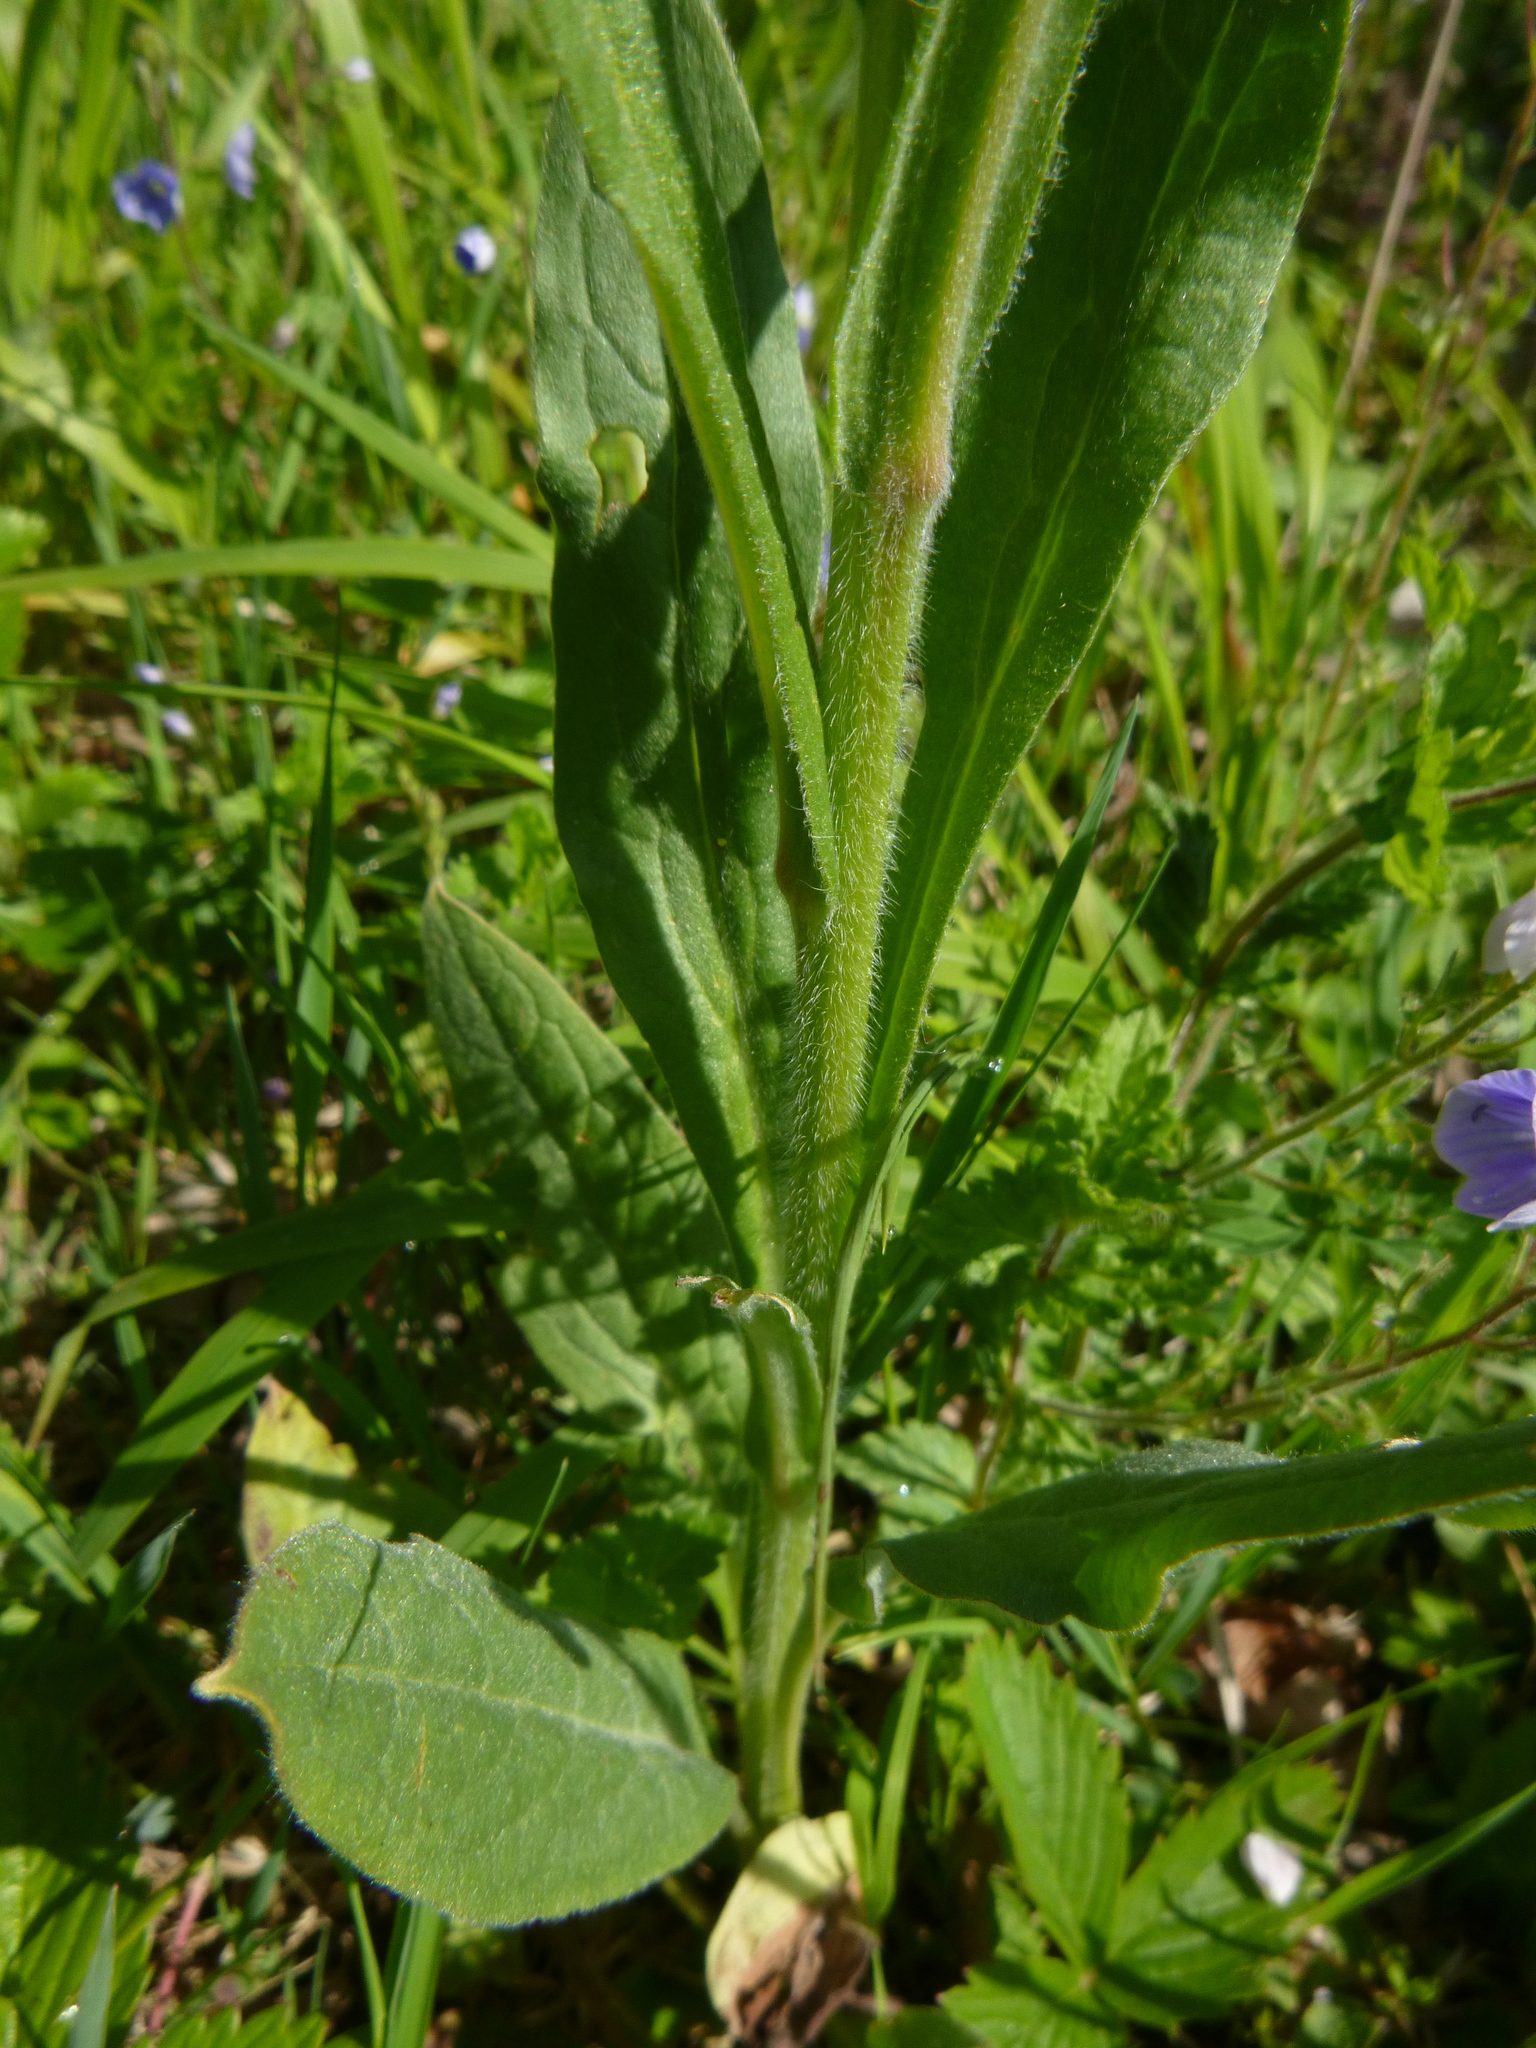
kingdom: Plantae
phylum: Tracheophyta
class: Magnoliopsida
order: Boraginales
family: Boraginaceae
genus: Cynoglossum
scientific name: Cynoglossum officinale
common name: Hound's-tongue
